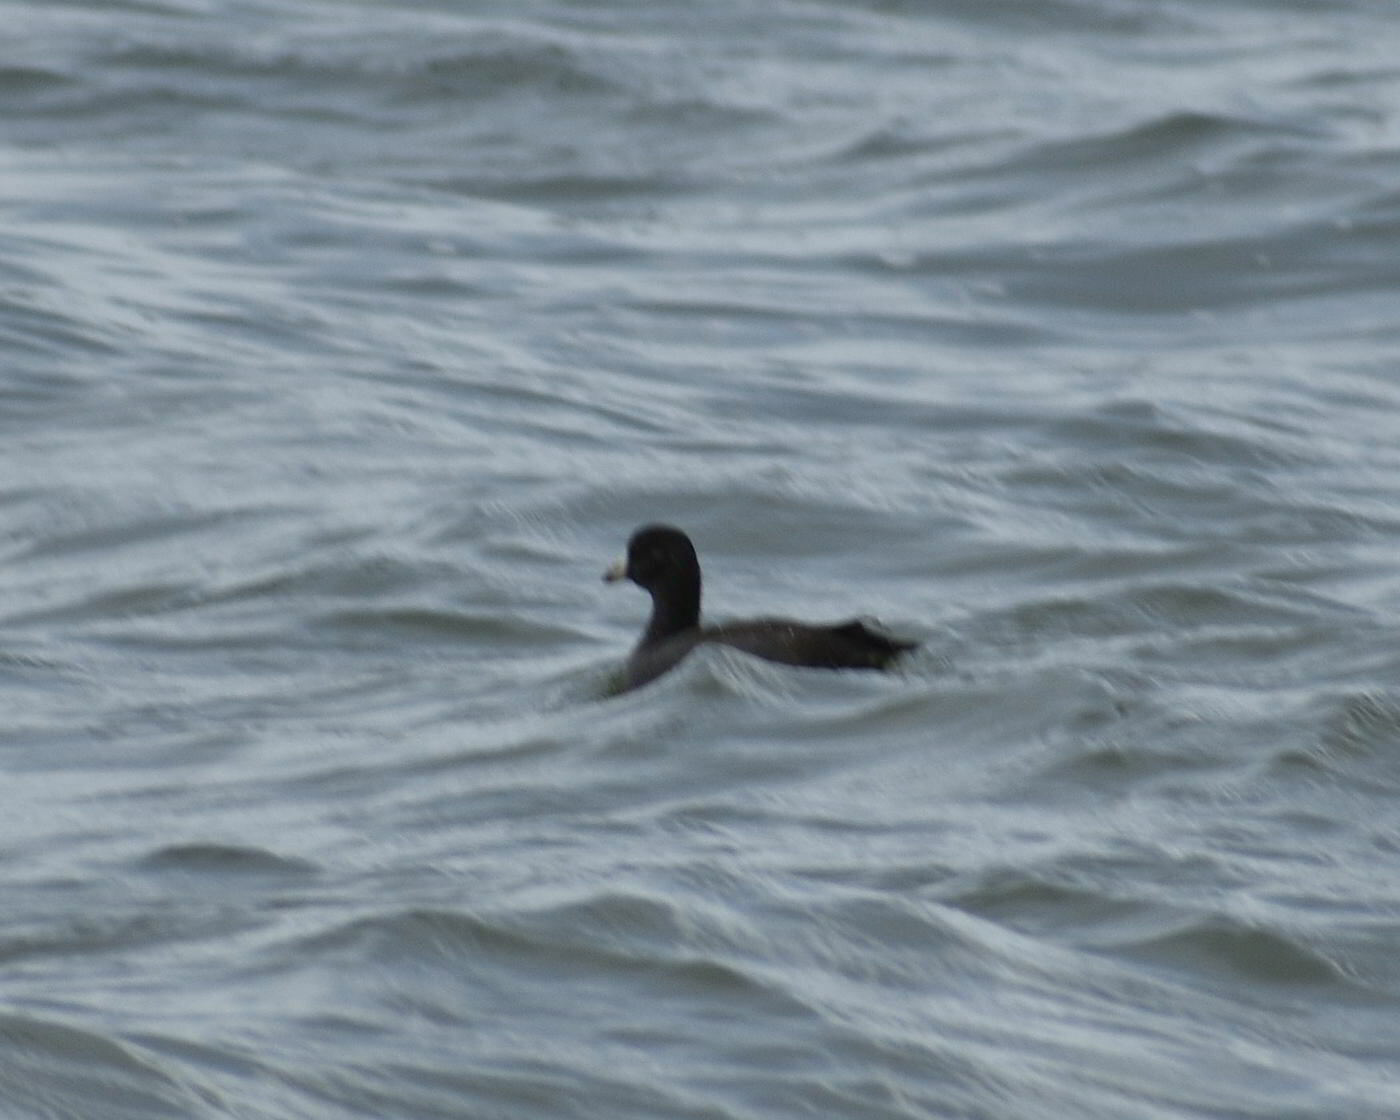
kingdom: Animalia
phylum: Chordata
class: Aves
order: Gruiformes
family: Rallidae
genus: Fulica
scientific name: Fulica americana
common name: American coot
